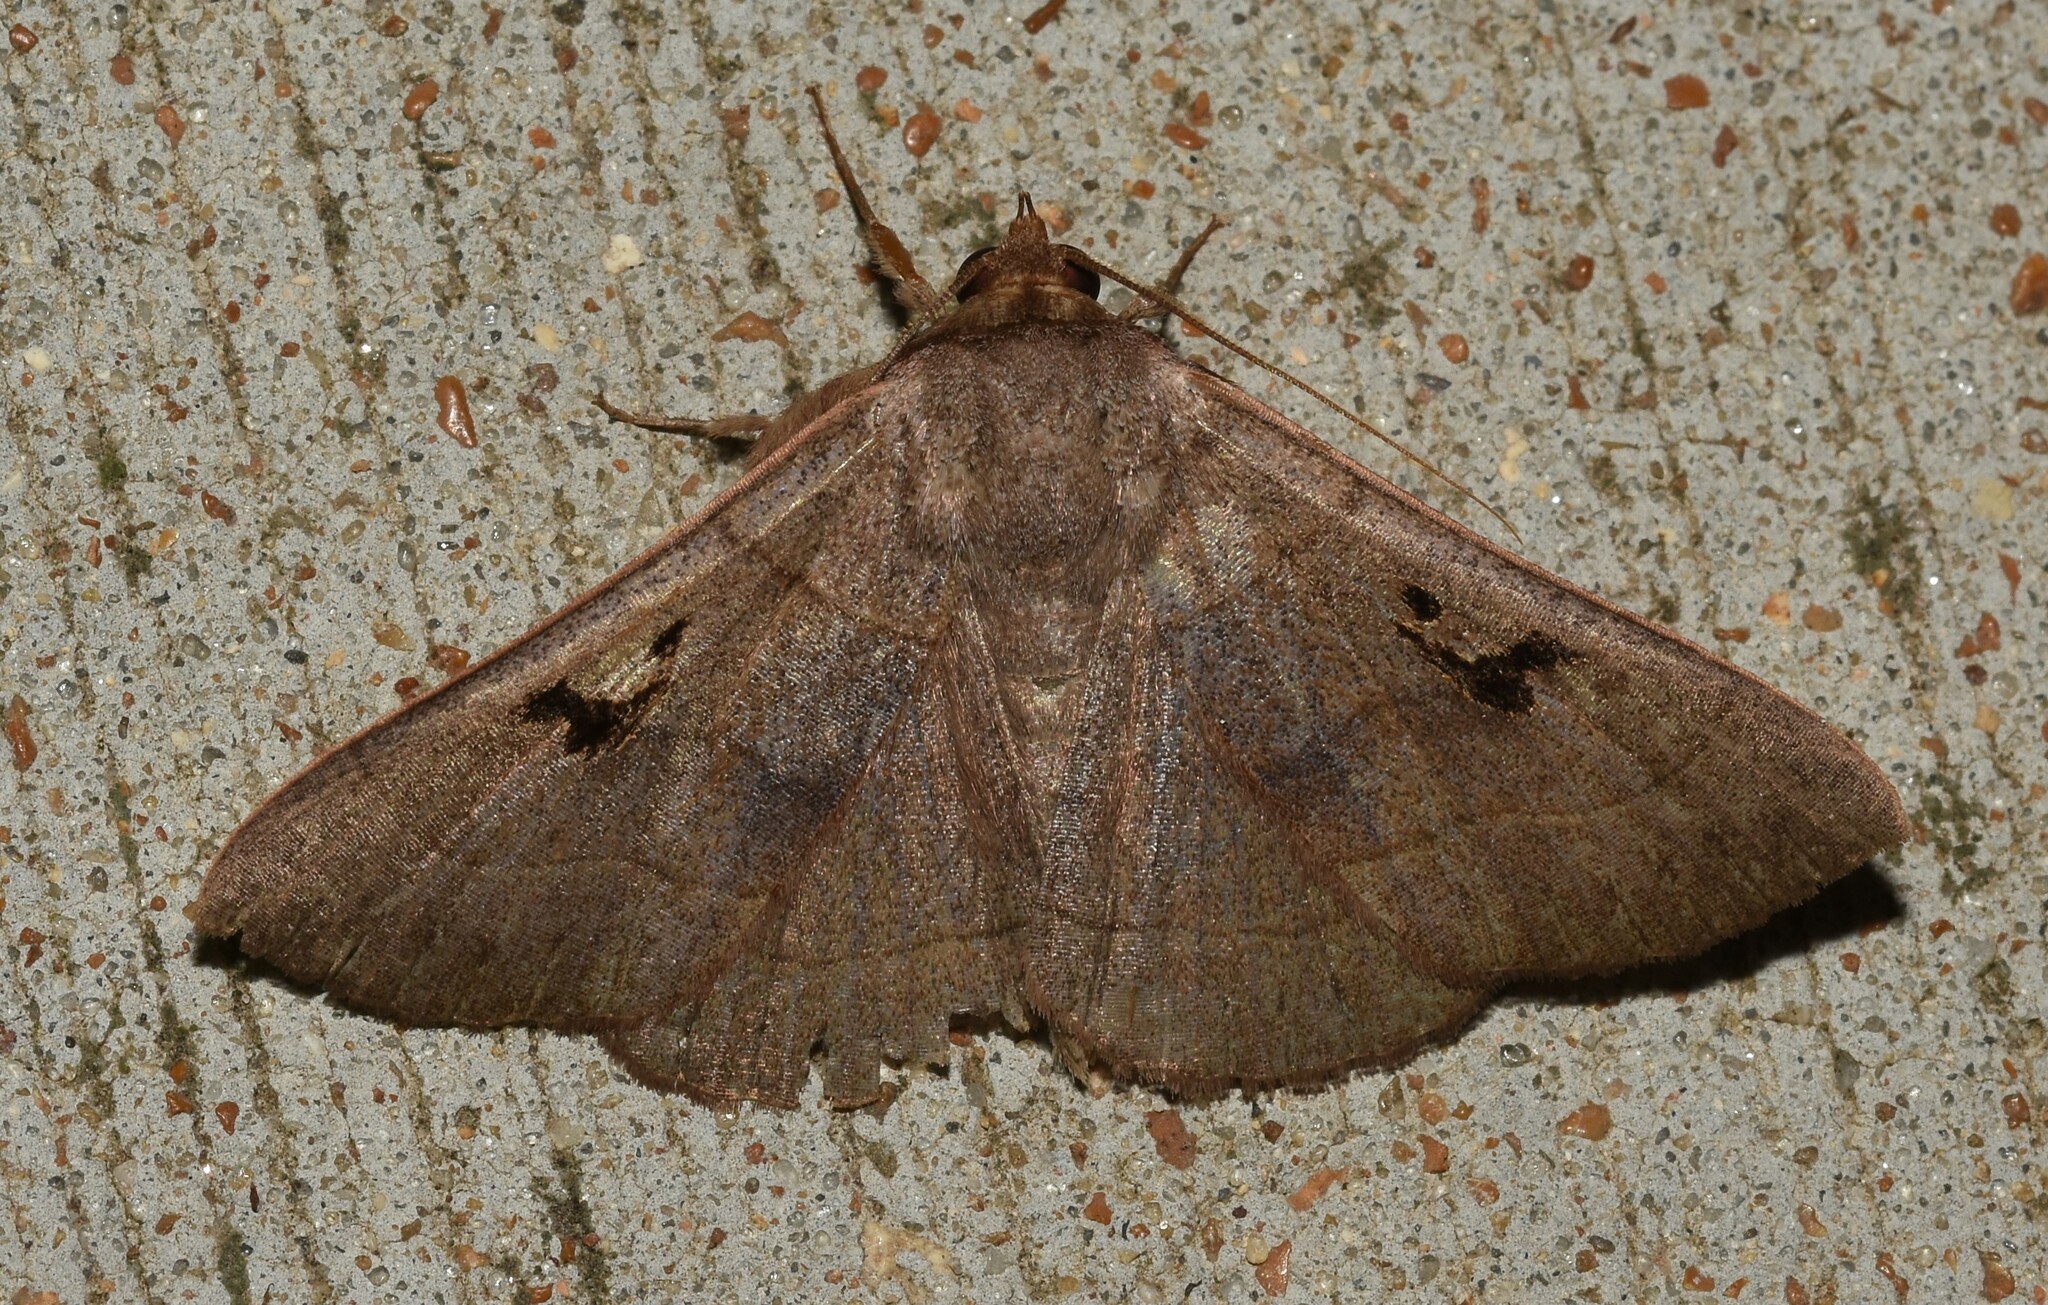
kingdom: Animalia
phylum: Arthropoda
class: Insecta
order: Lepidoptera
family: Erebidae
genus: Panopoda
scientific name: Panopoda carneicosta
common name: Brown panopoda moth
